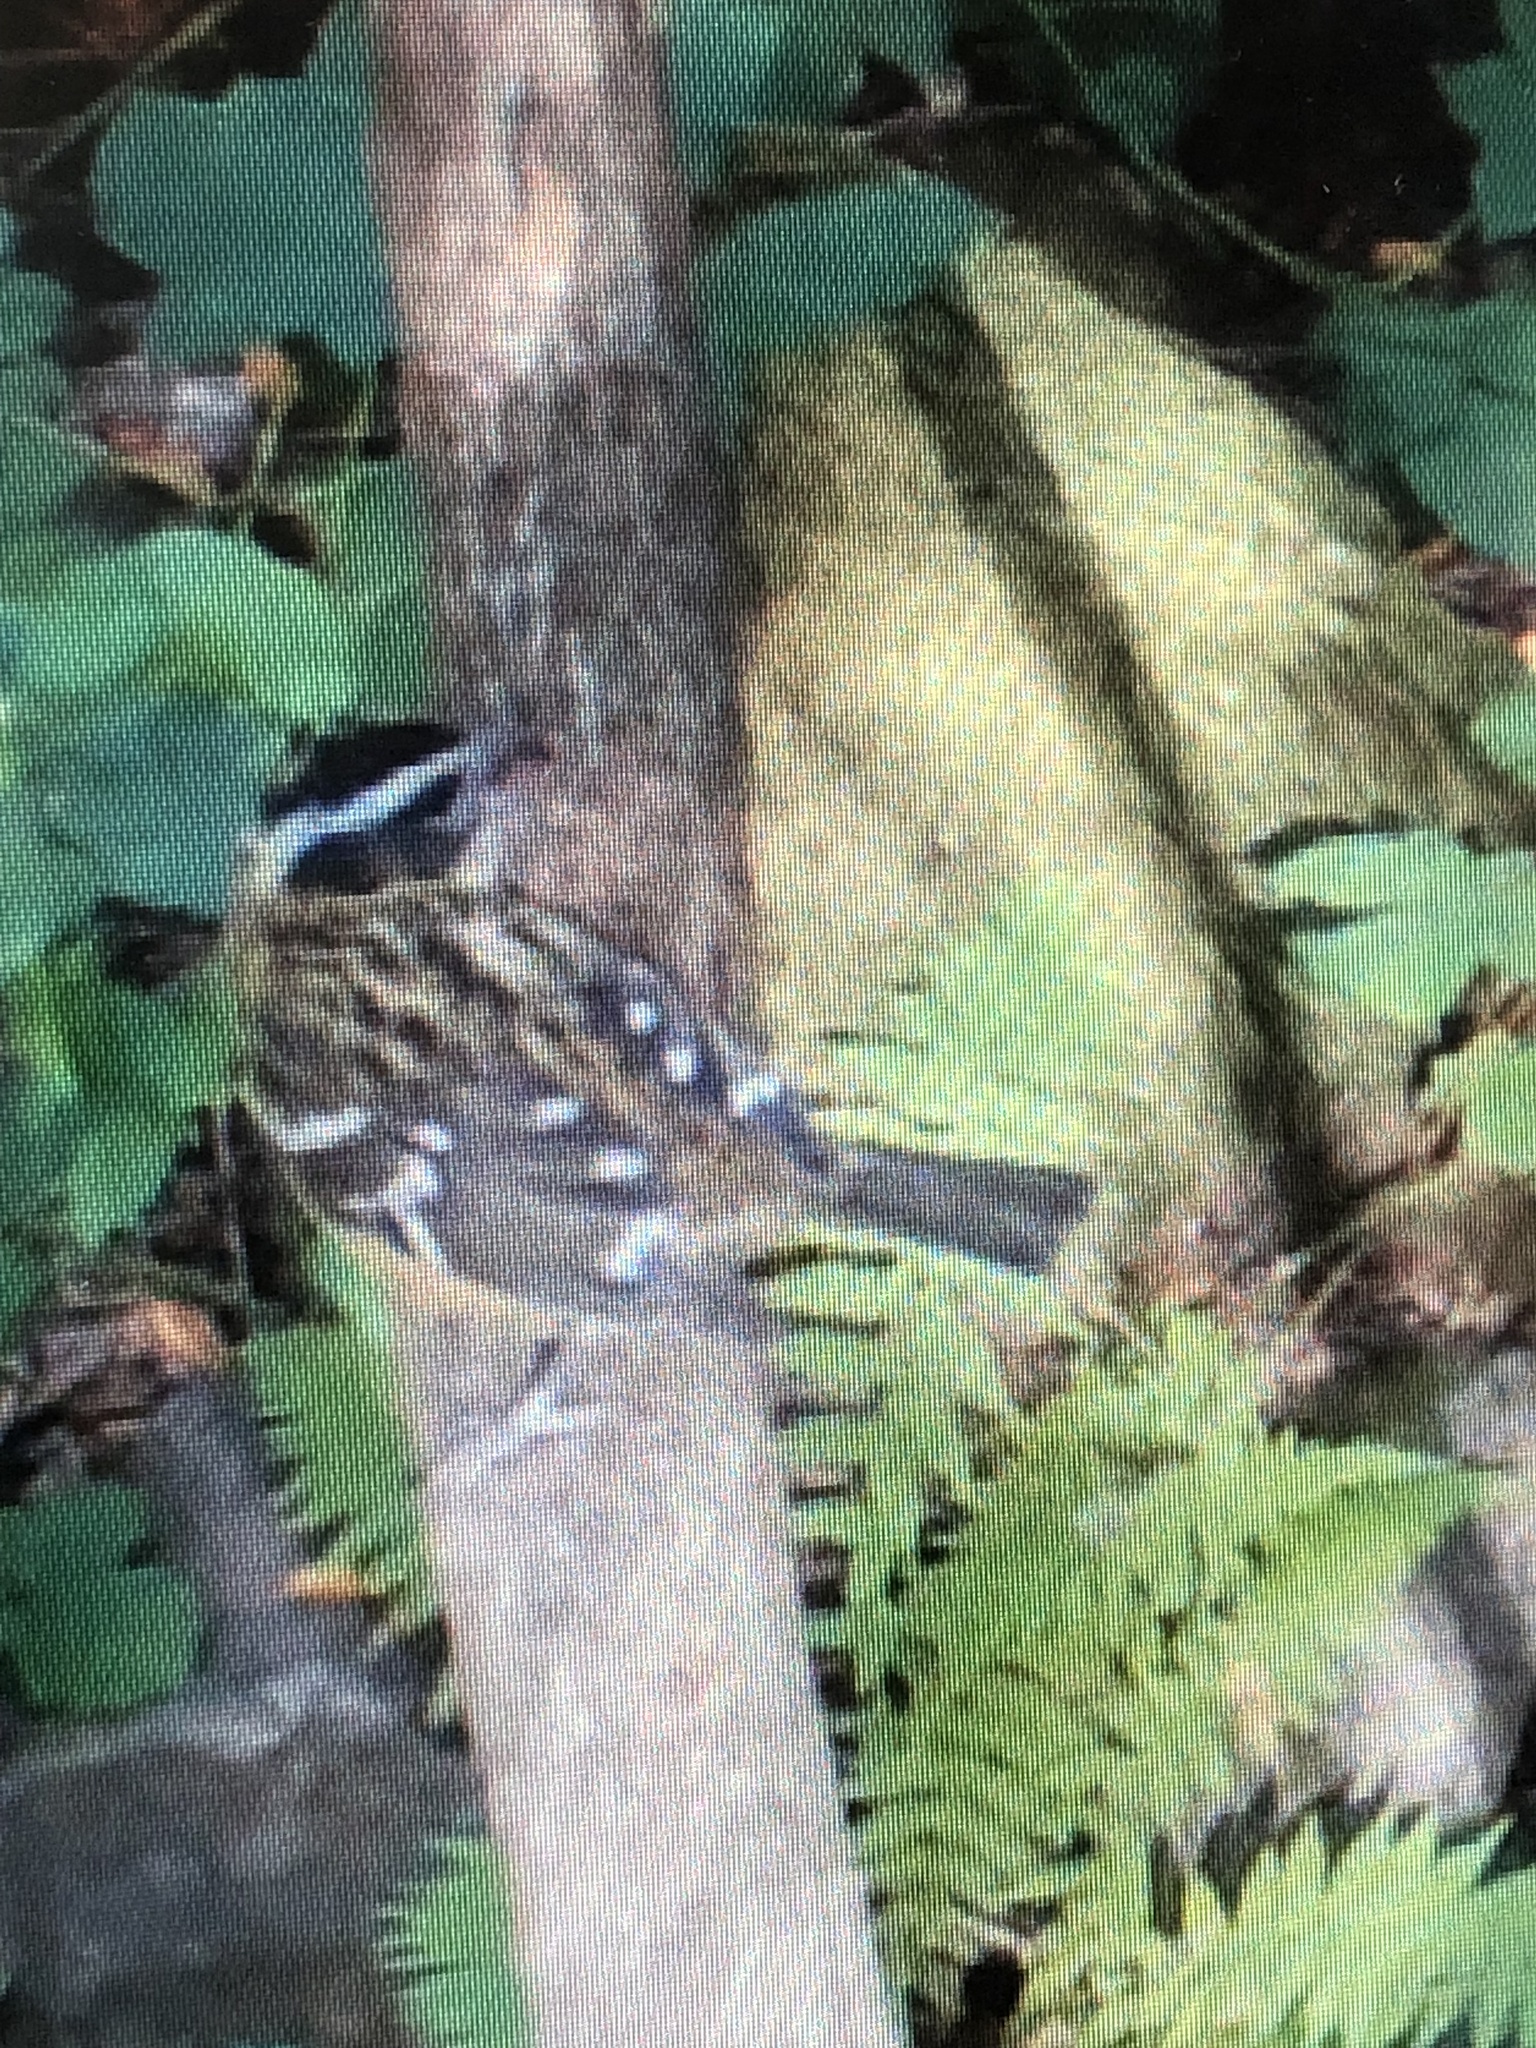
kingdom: Animalia
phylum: Chordata
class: Aves
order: Passeriformes
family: Cardinalidae
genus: Pheucticus
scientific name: Pheucticus melanocephalus
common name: Black-headed grosbeak
